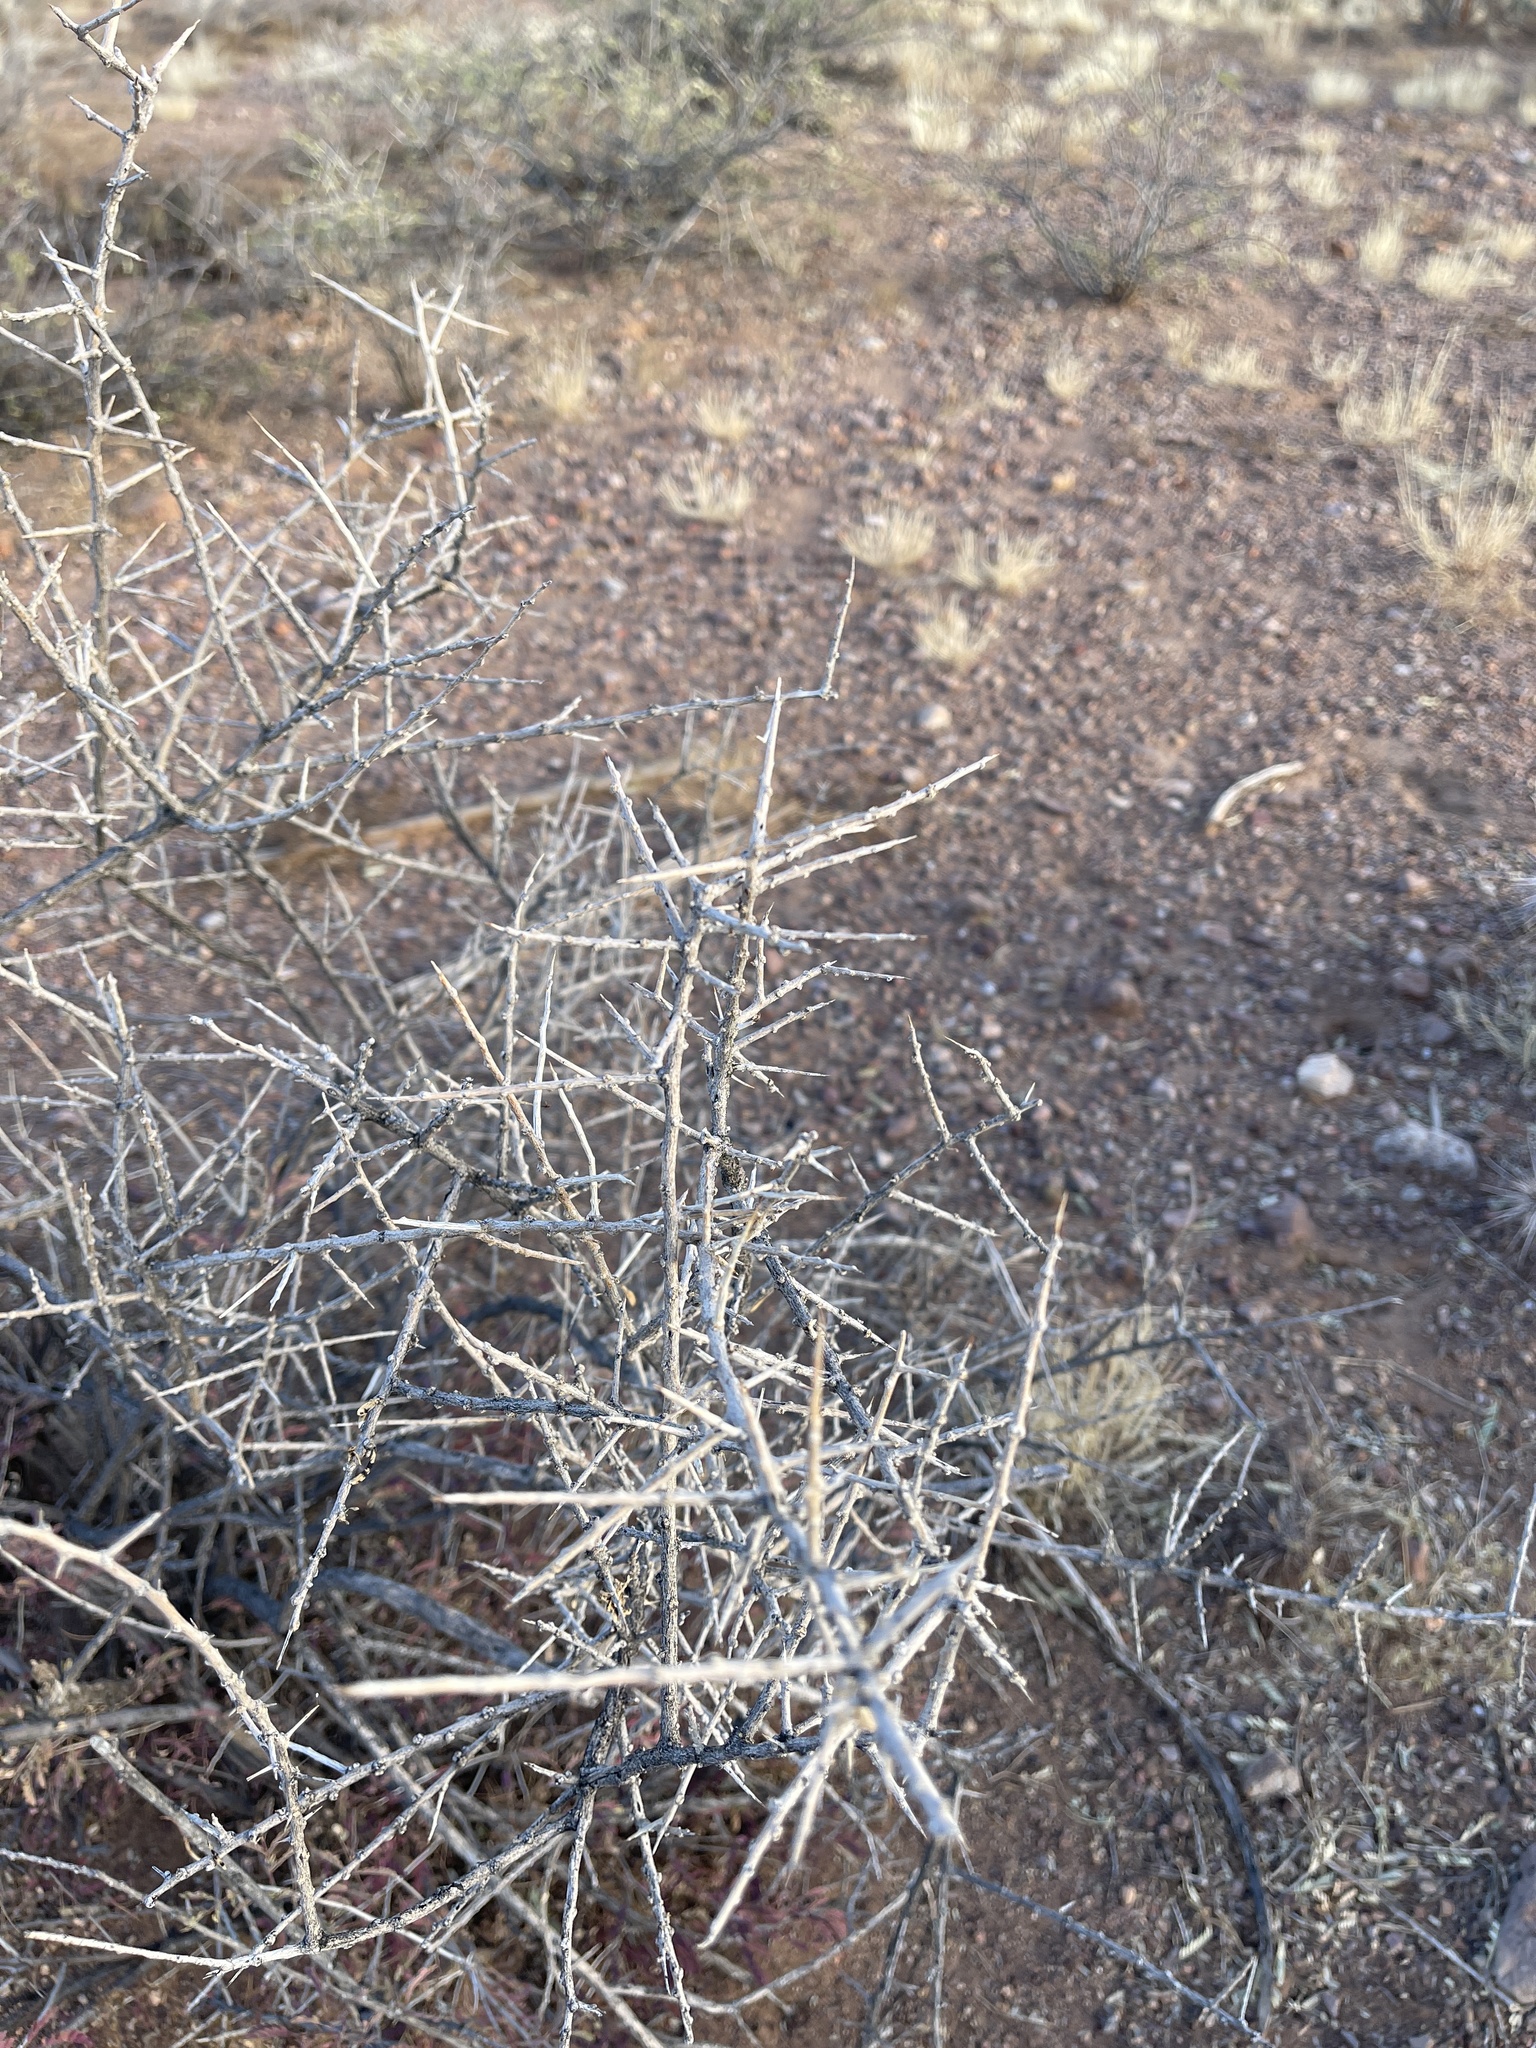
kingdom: Plantae
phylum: Tracheophyta
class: Magnoliopsida
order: Rosales
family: Rhamnaceae
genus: Sarcomphalus
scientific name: Sarcomphalus obtusifolius
